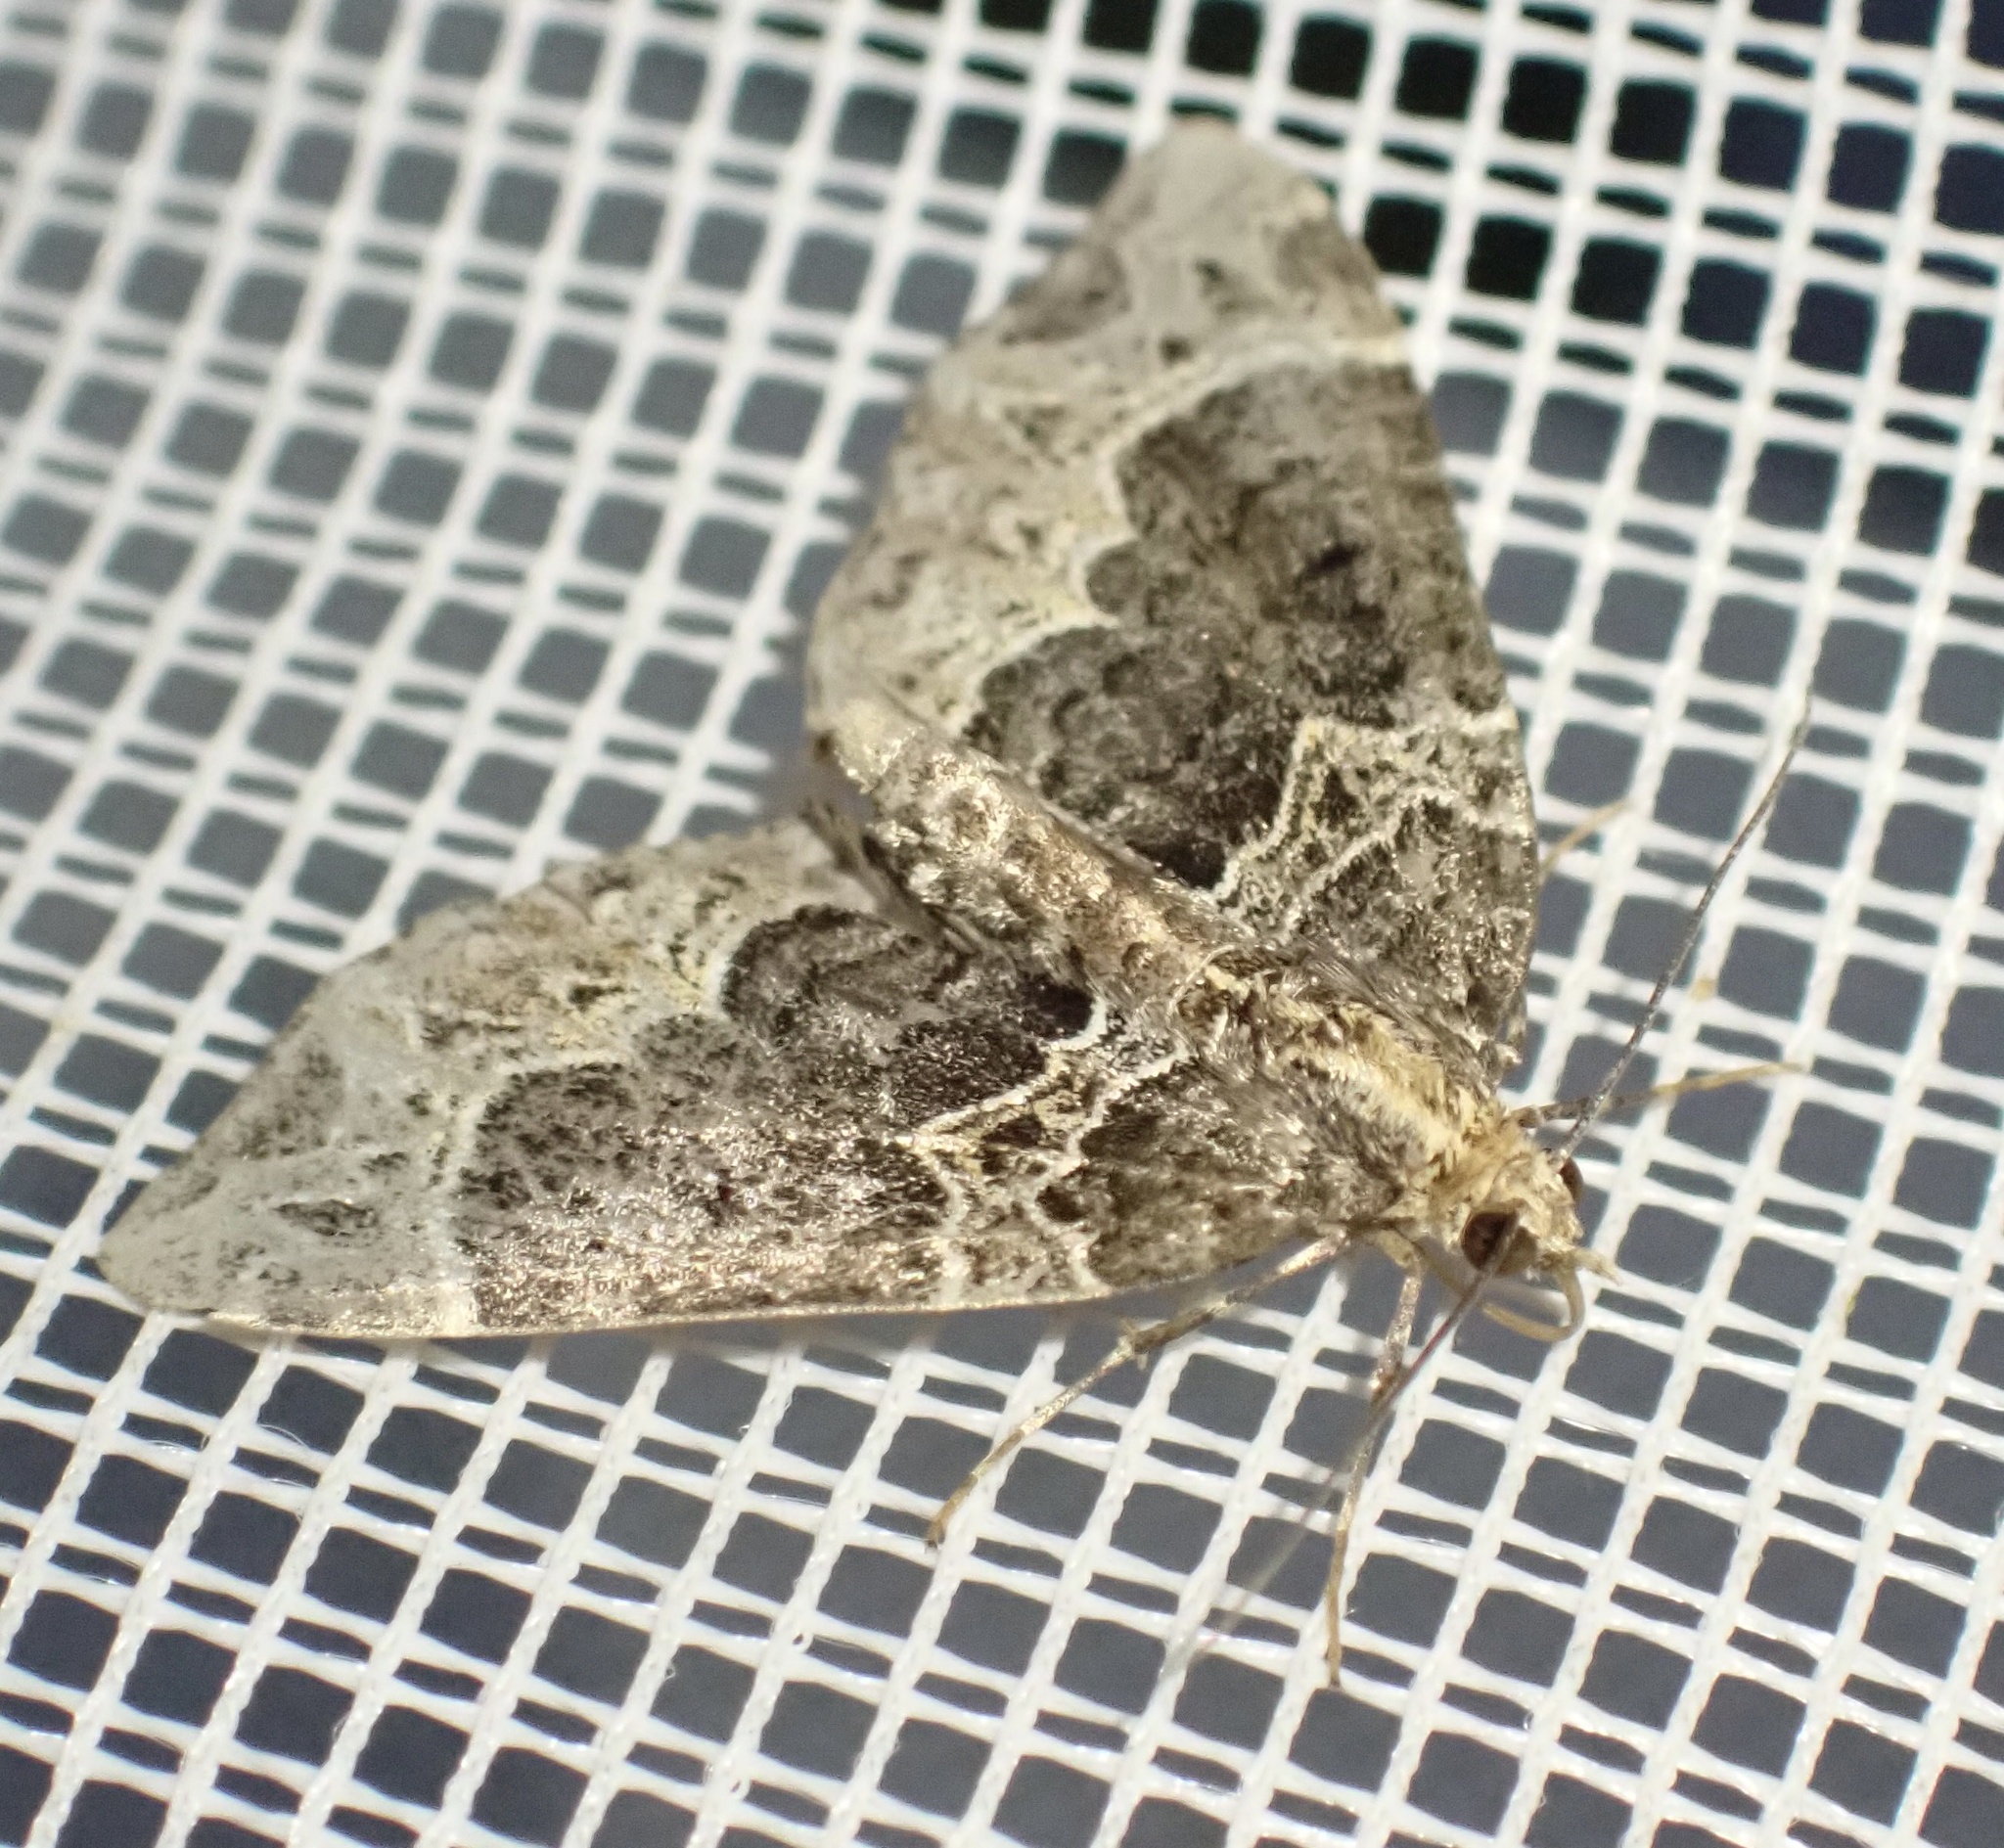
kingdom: Animalia
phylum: Arthropoda
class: Insecta
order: Lepidoptera
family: Geometridae
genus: Ecliptopera
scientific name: Ecliptopera silaceata
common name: Small phoenix
